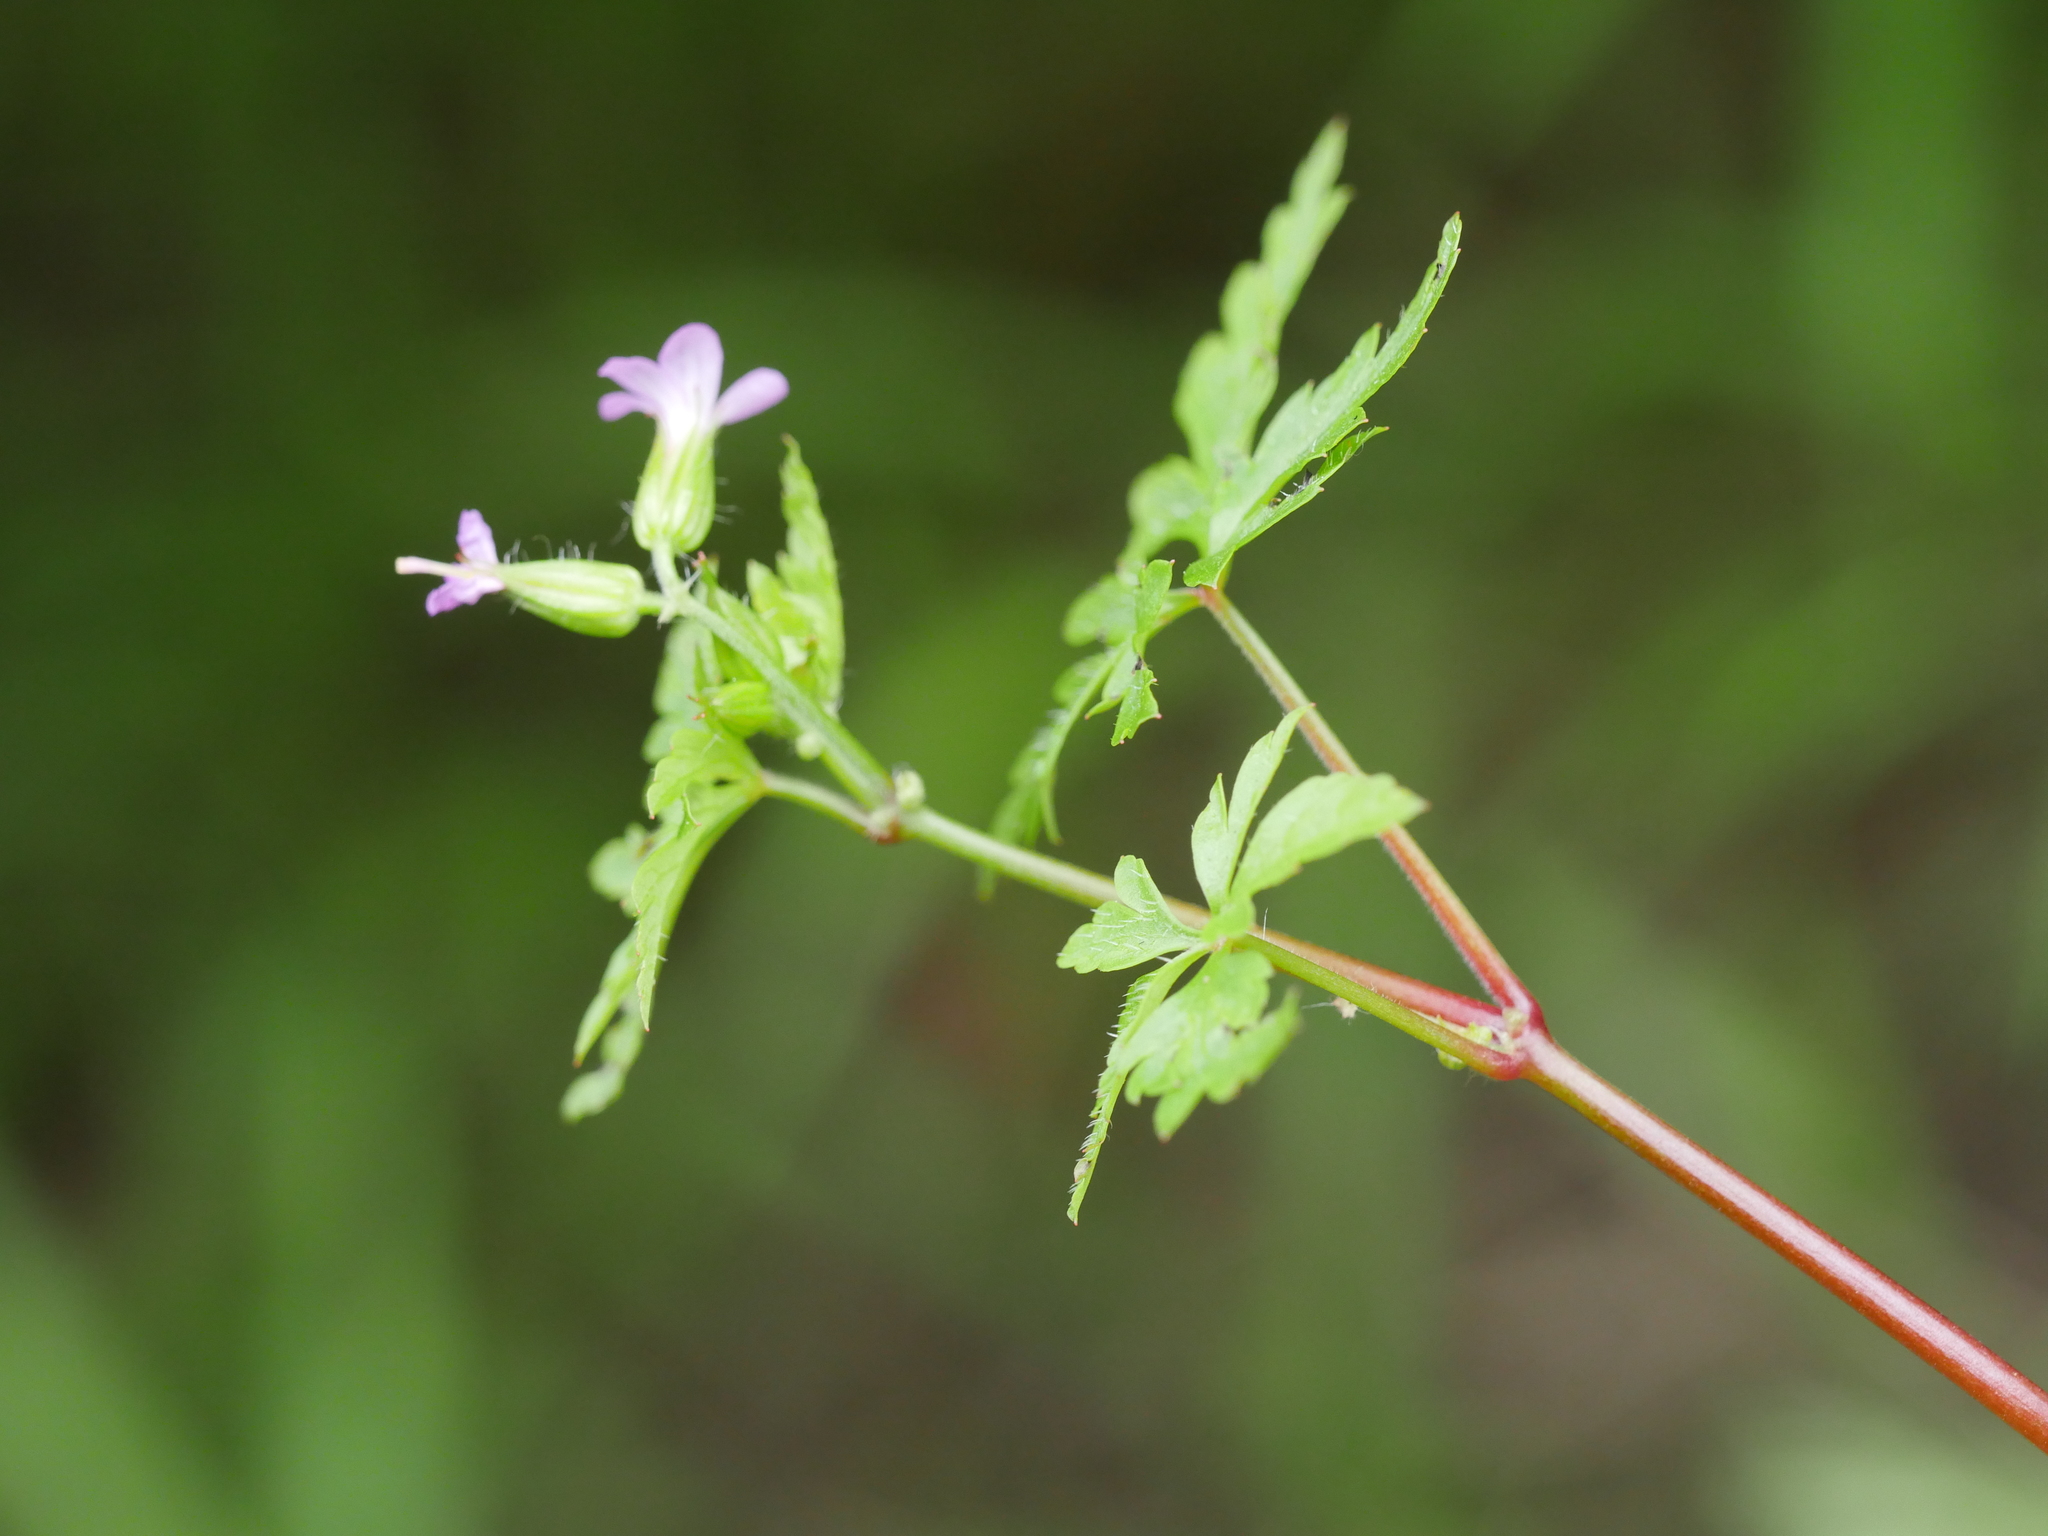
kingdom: Plantae
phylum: Tracheophyta
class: Magnoliopsida
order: Geraniales
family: Geraniaceae
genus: Geranium
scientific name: Geranium purpureum
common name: Little-robin
